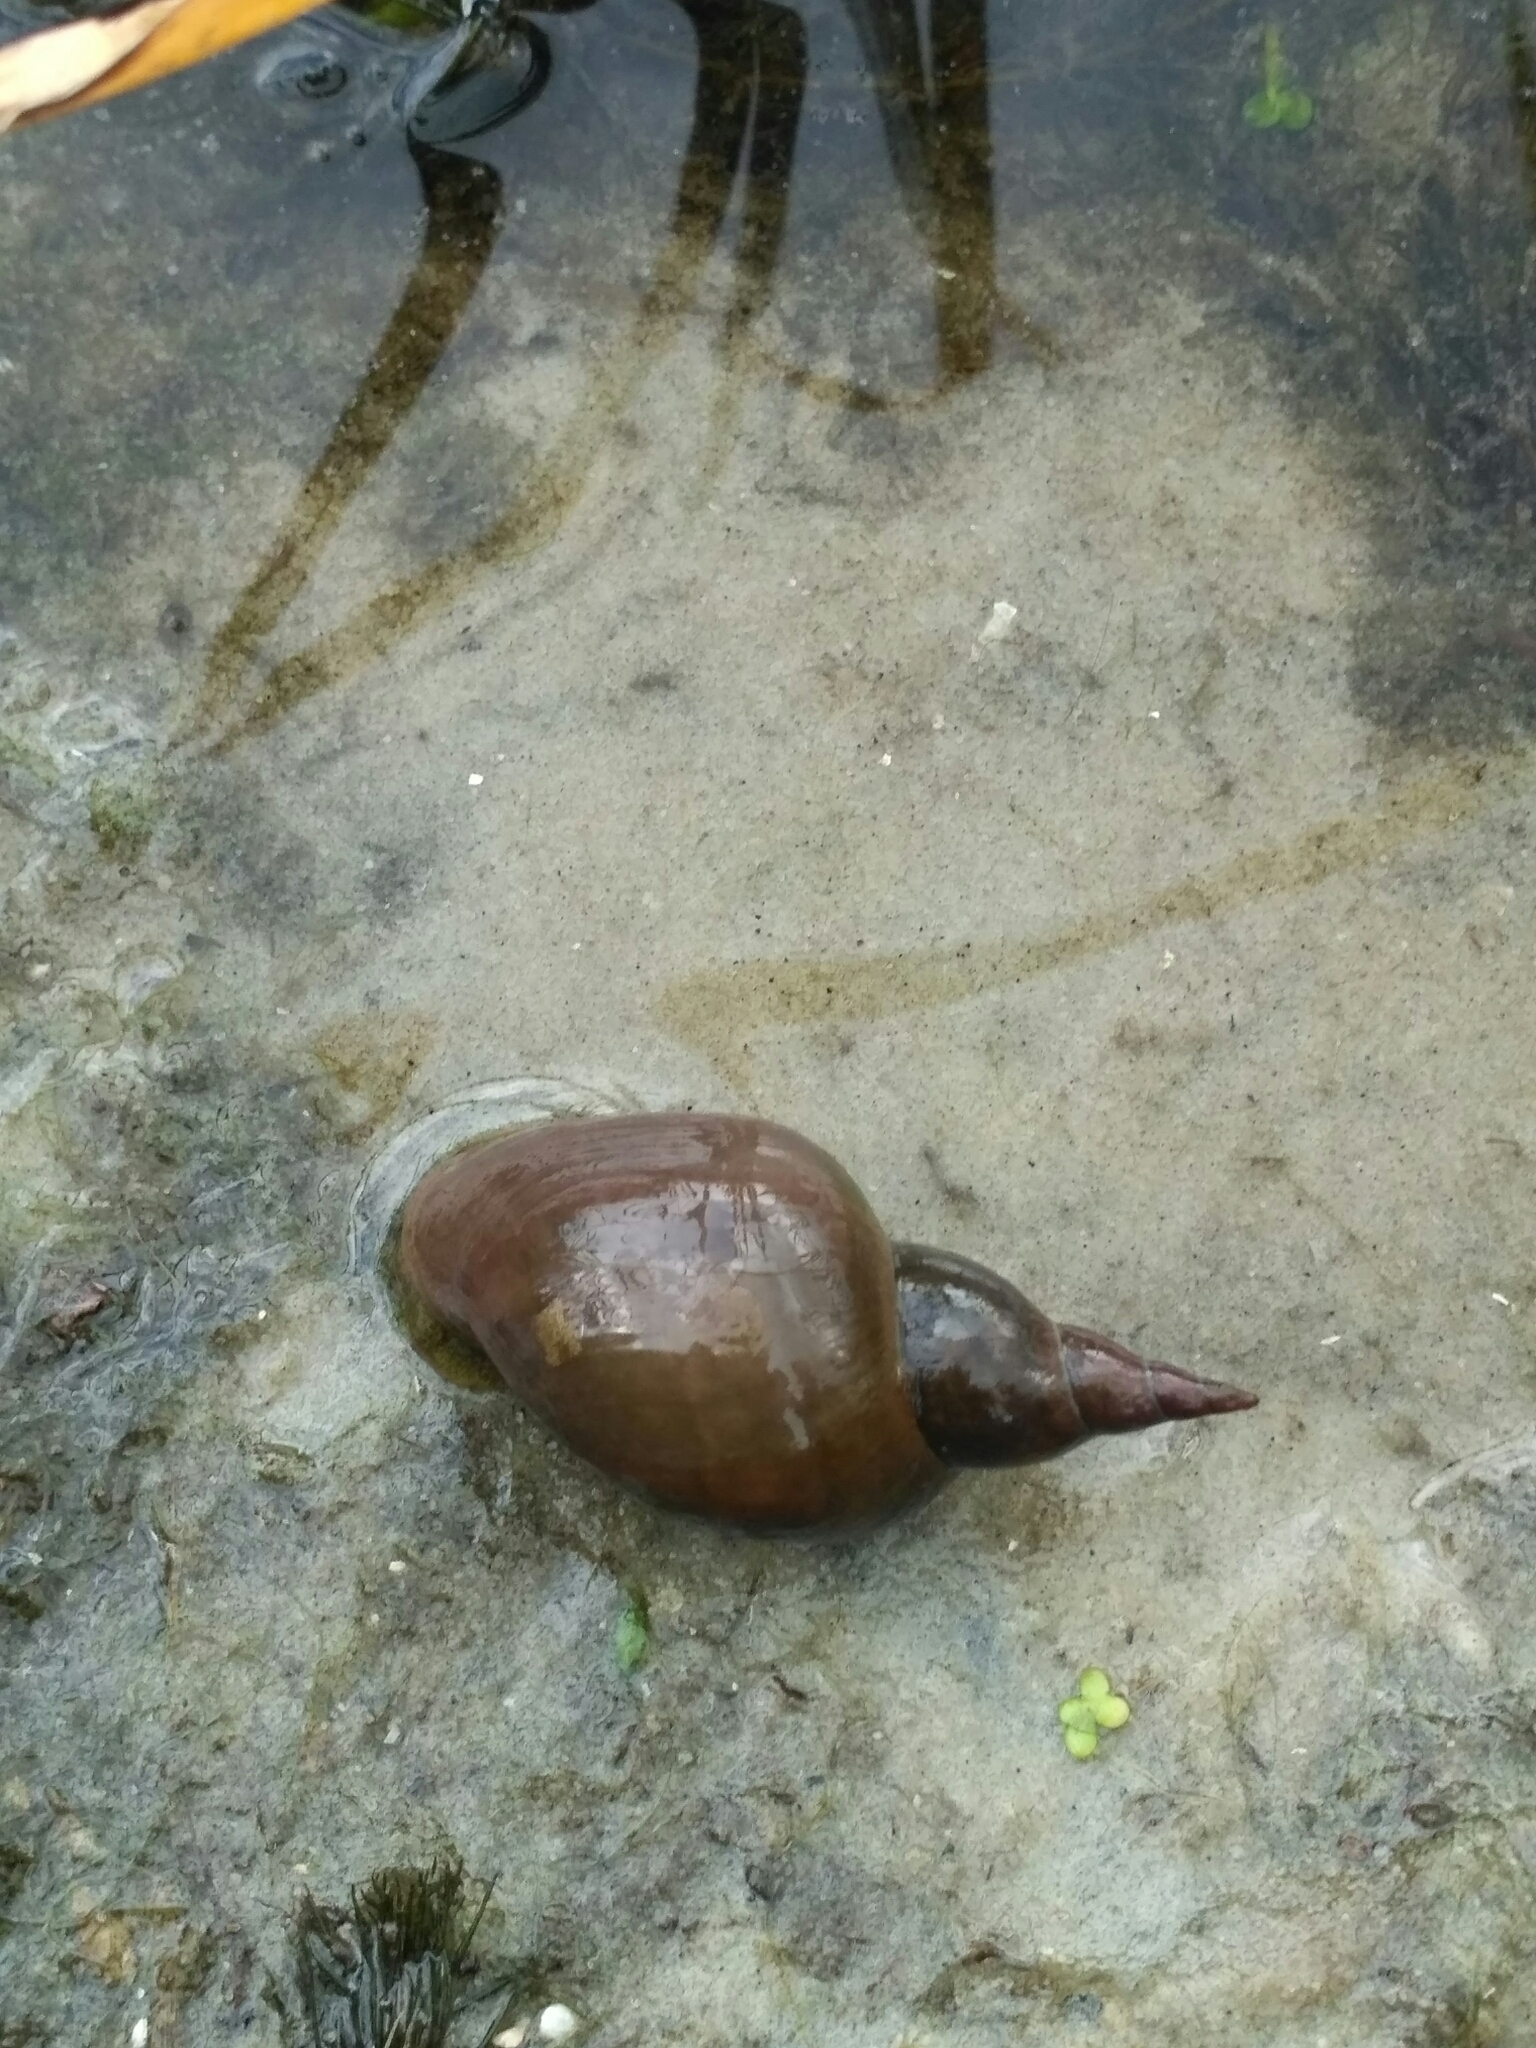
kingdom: Animalia
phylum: Mollusca
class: Gastropoda
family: Lymnaeidae
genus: Lymnaea
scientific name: Lymnaea stagnalis
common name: Great pond snail
